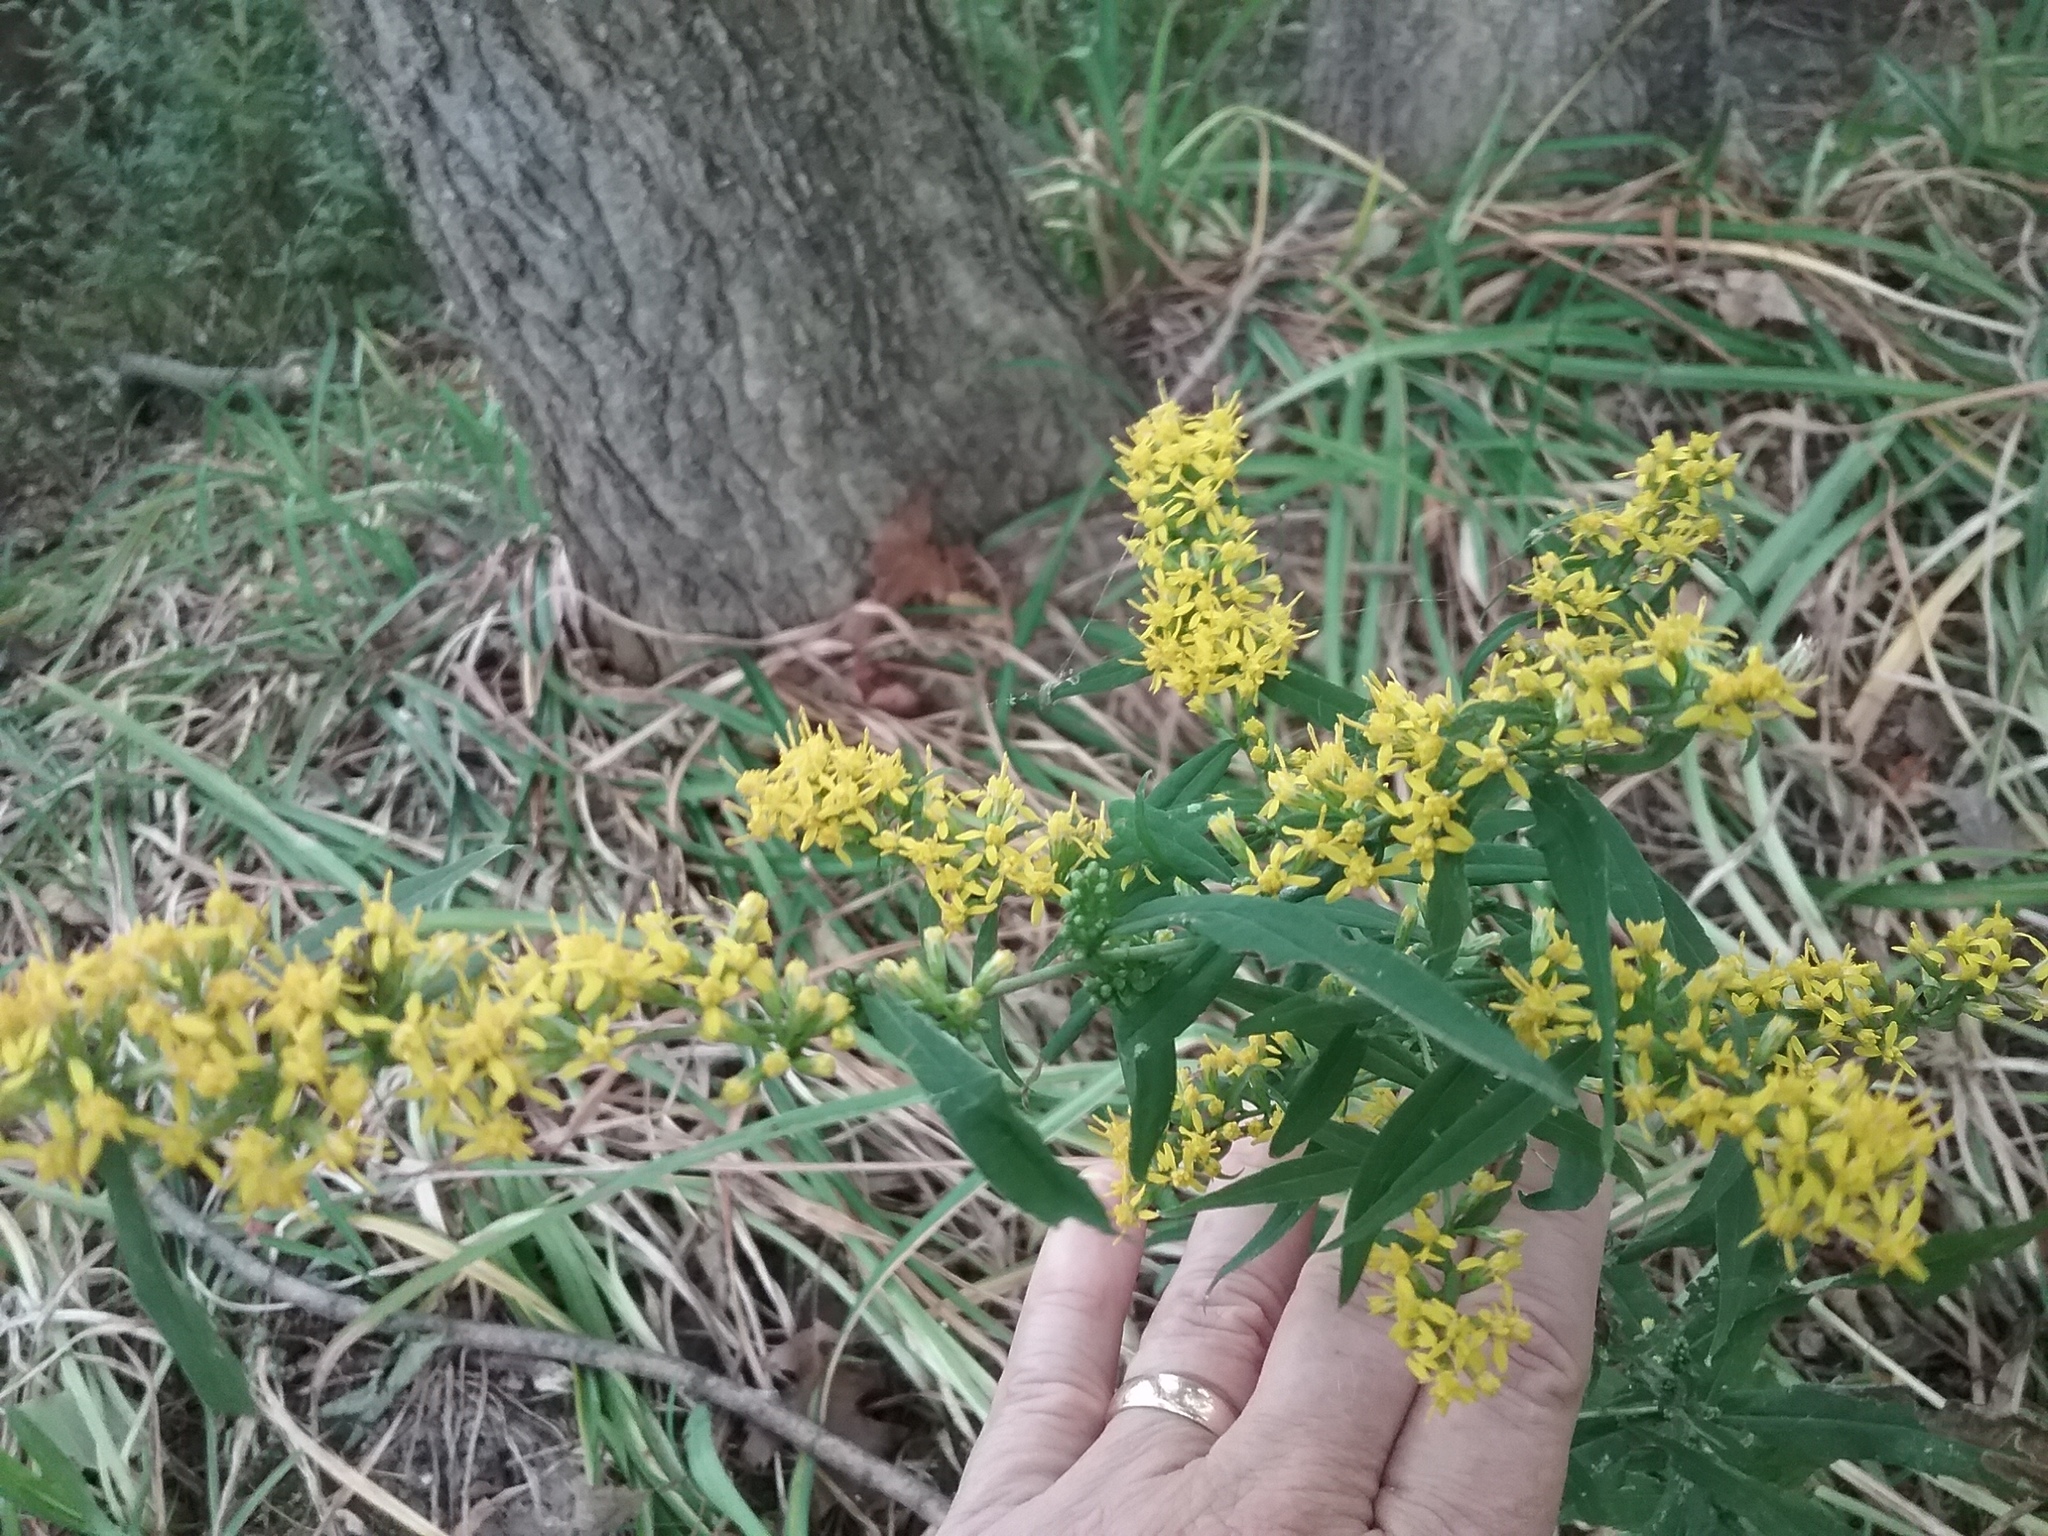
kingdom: Plantae
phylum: Tracheophyta
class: Magnoliopsida
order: Asterales
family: Asteraceae
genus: Solidago
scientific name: Solidago caesia
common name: Woodland goldenrod
